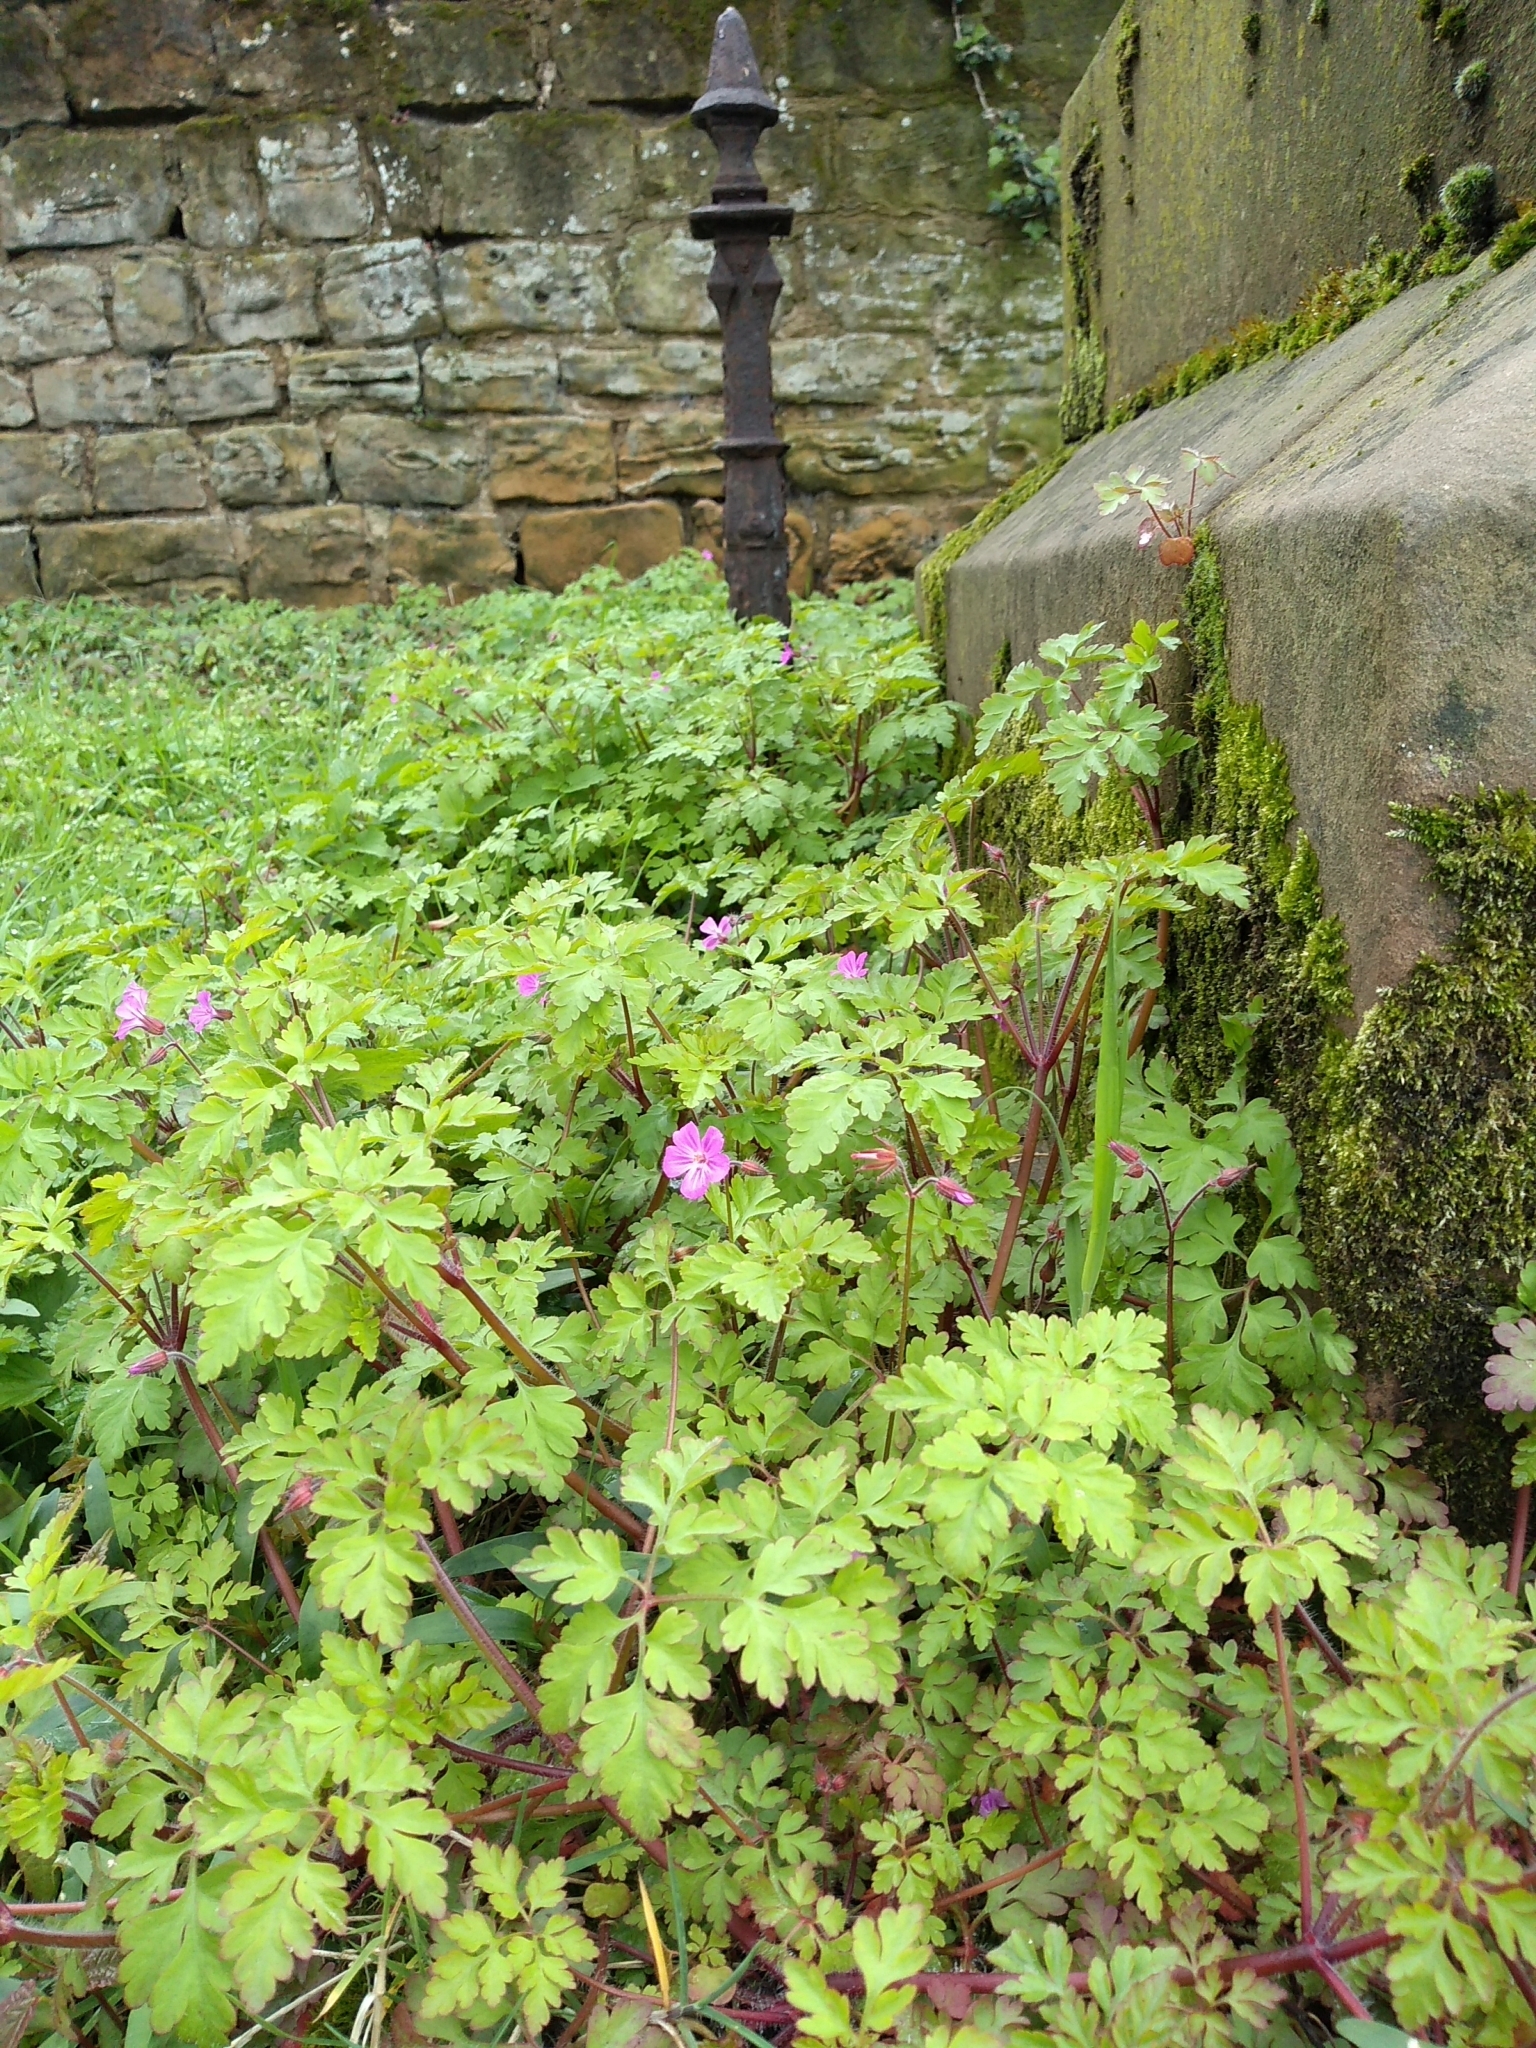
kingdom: Plantae
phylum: Tracheophyta
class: Magnoliopsida
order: Geraniales
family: Geraniaceae
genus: Geranium
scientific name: Geranium robertianum
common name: Herb-robert
